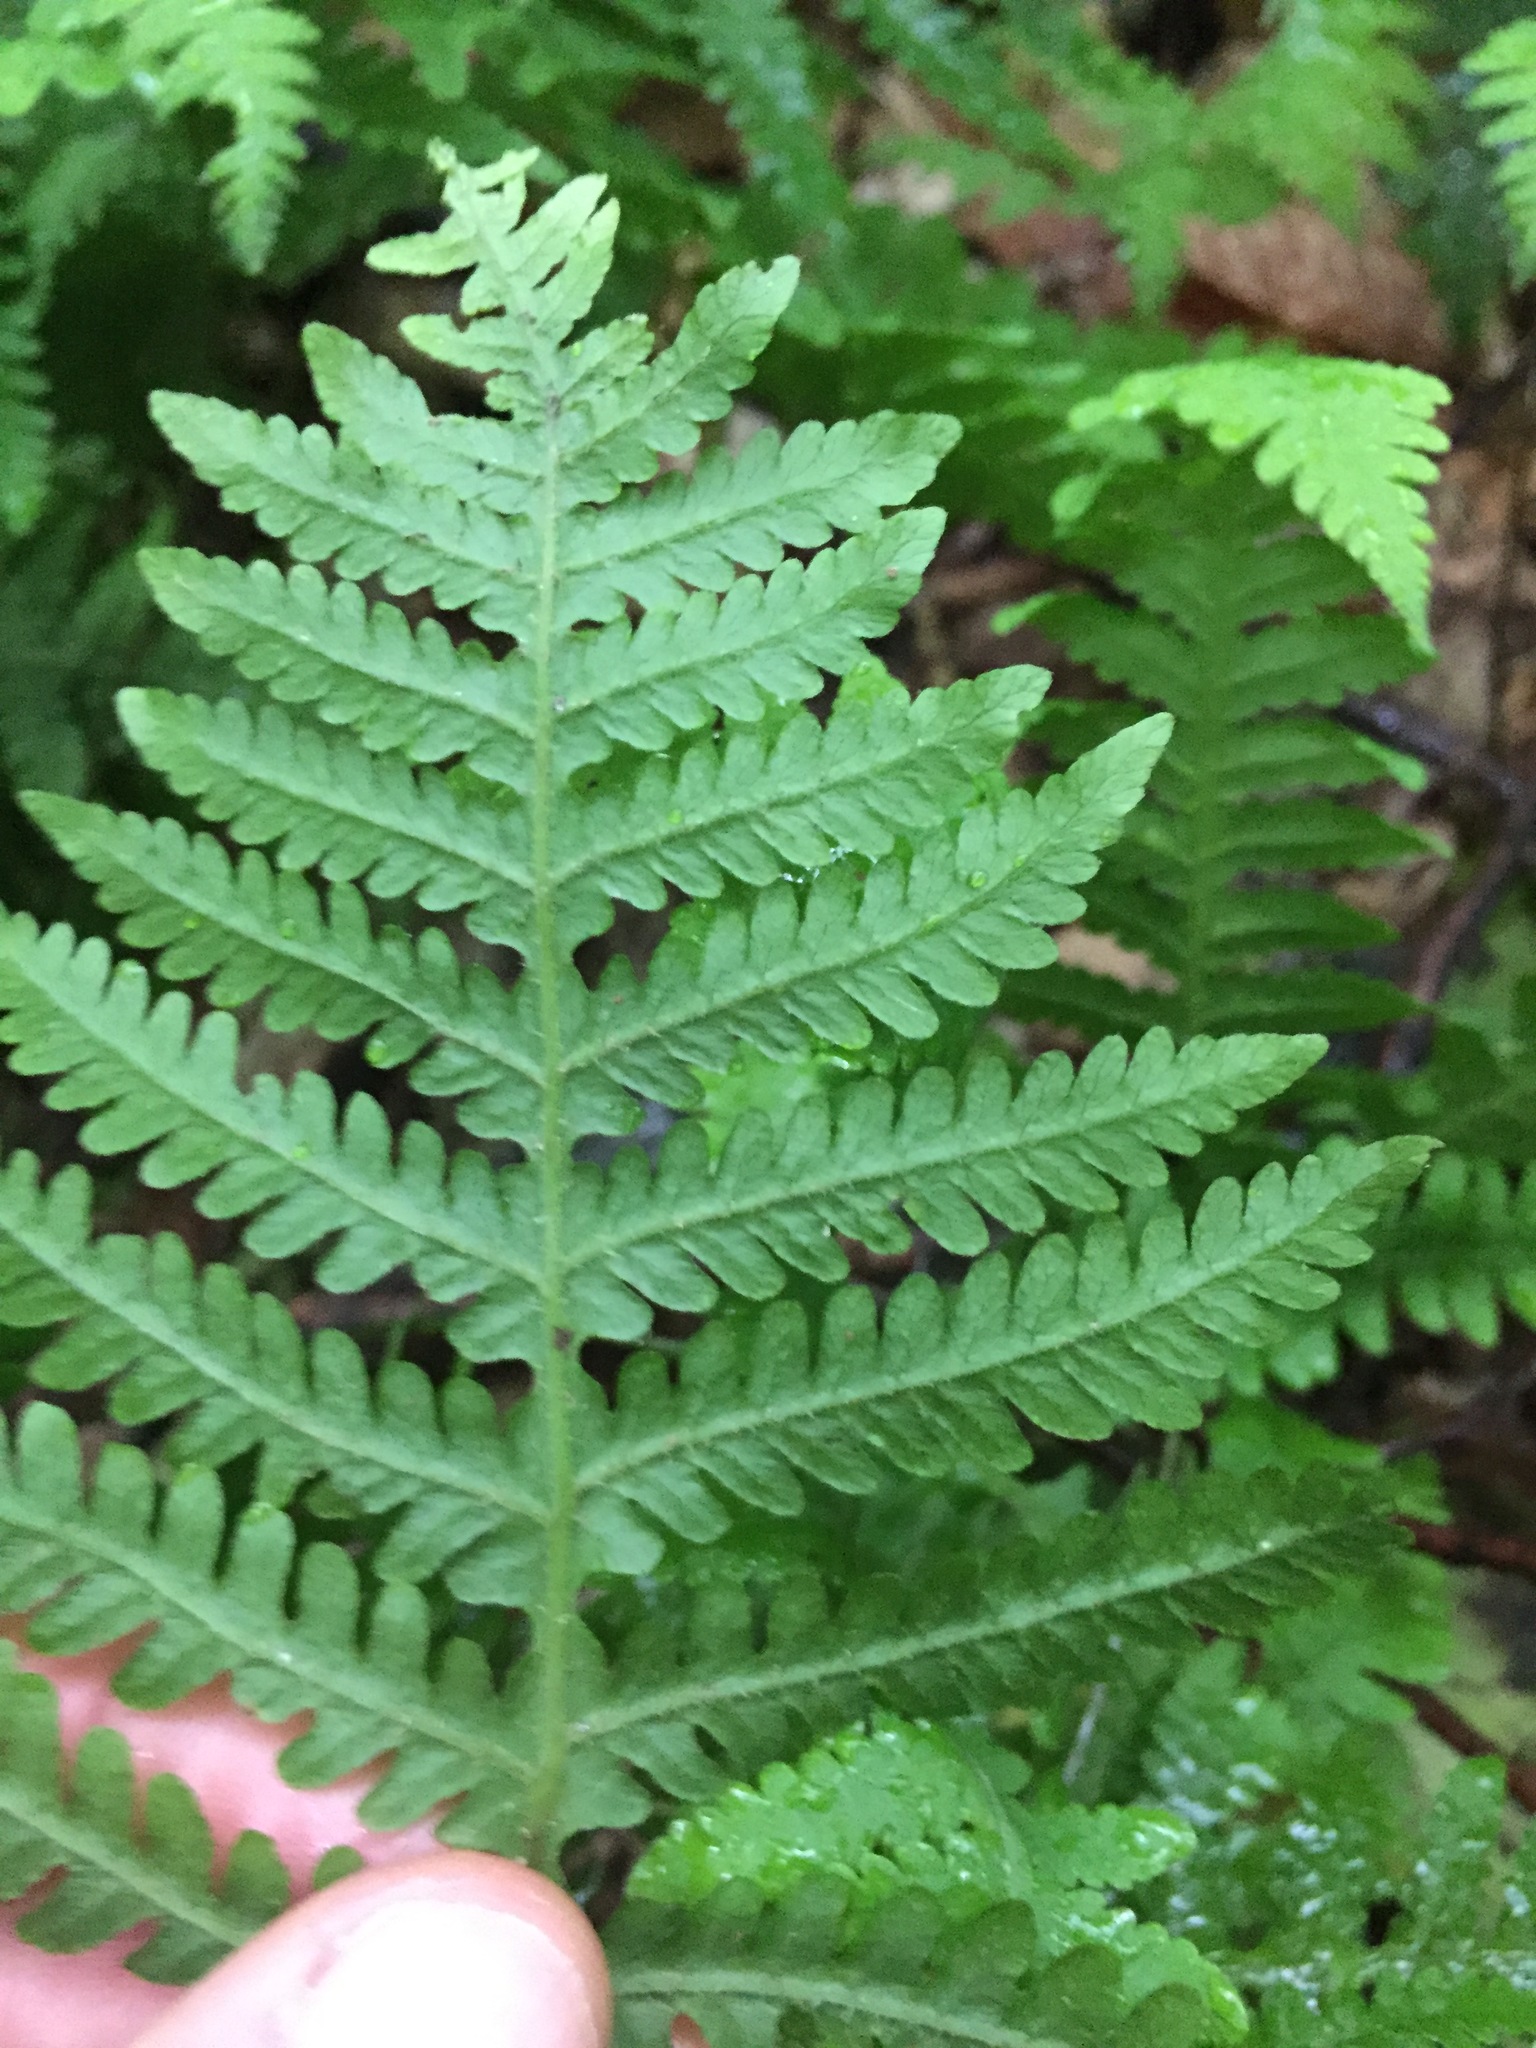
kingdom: Plantae
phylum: Tracheophyta
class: Polypodiopsida
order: Polypodiales
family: Thelypteridaceae
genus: Phegopteris
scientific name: Phegopteris hexagonoptera
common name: Broad beech fern
